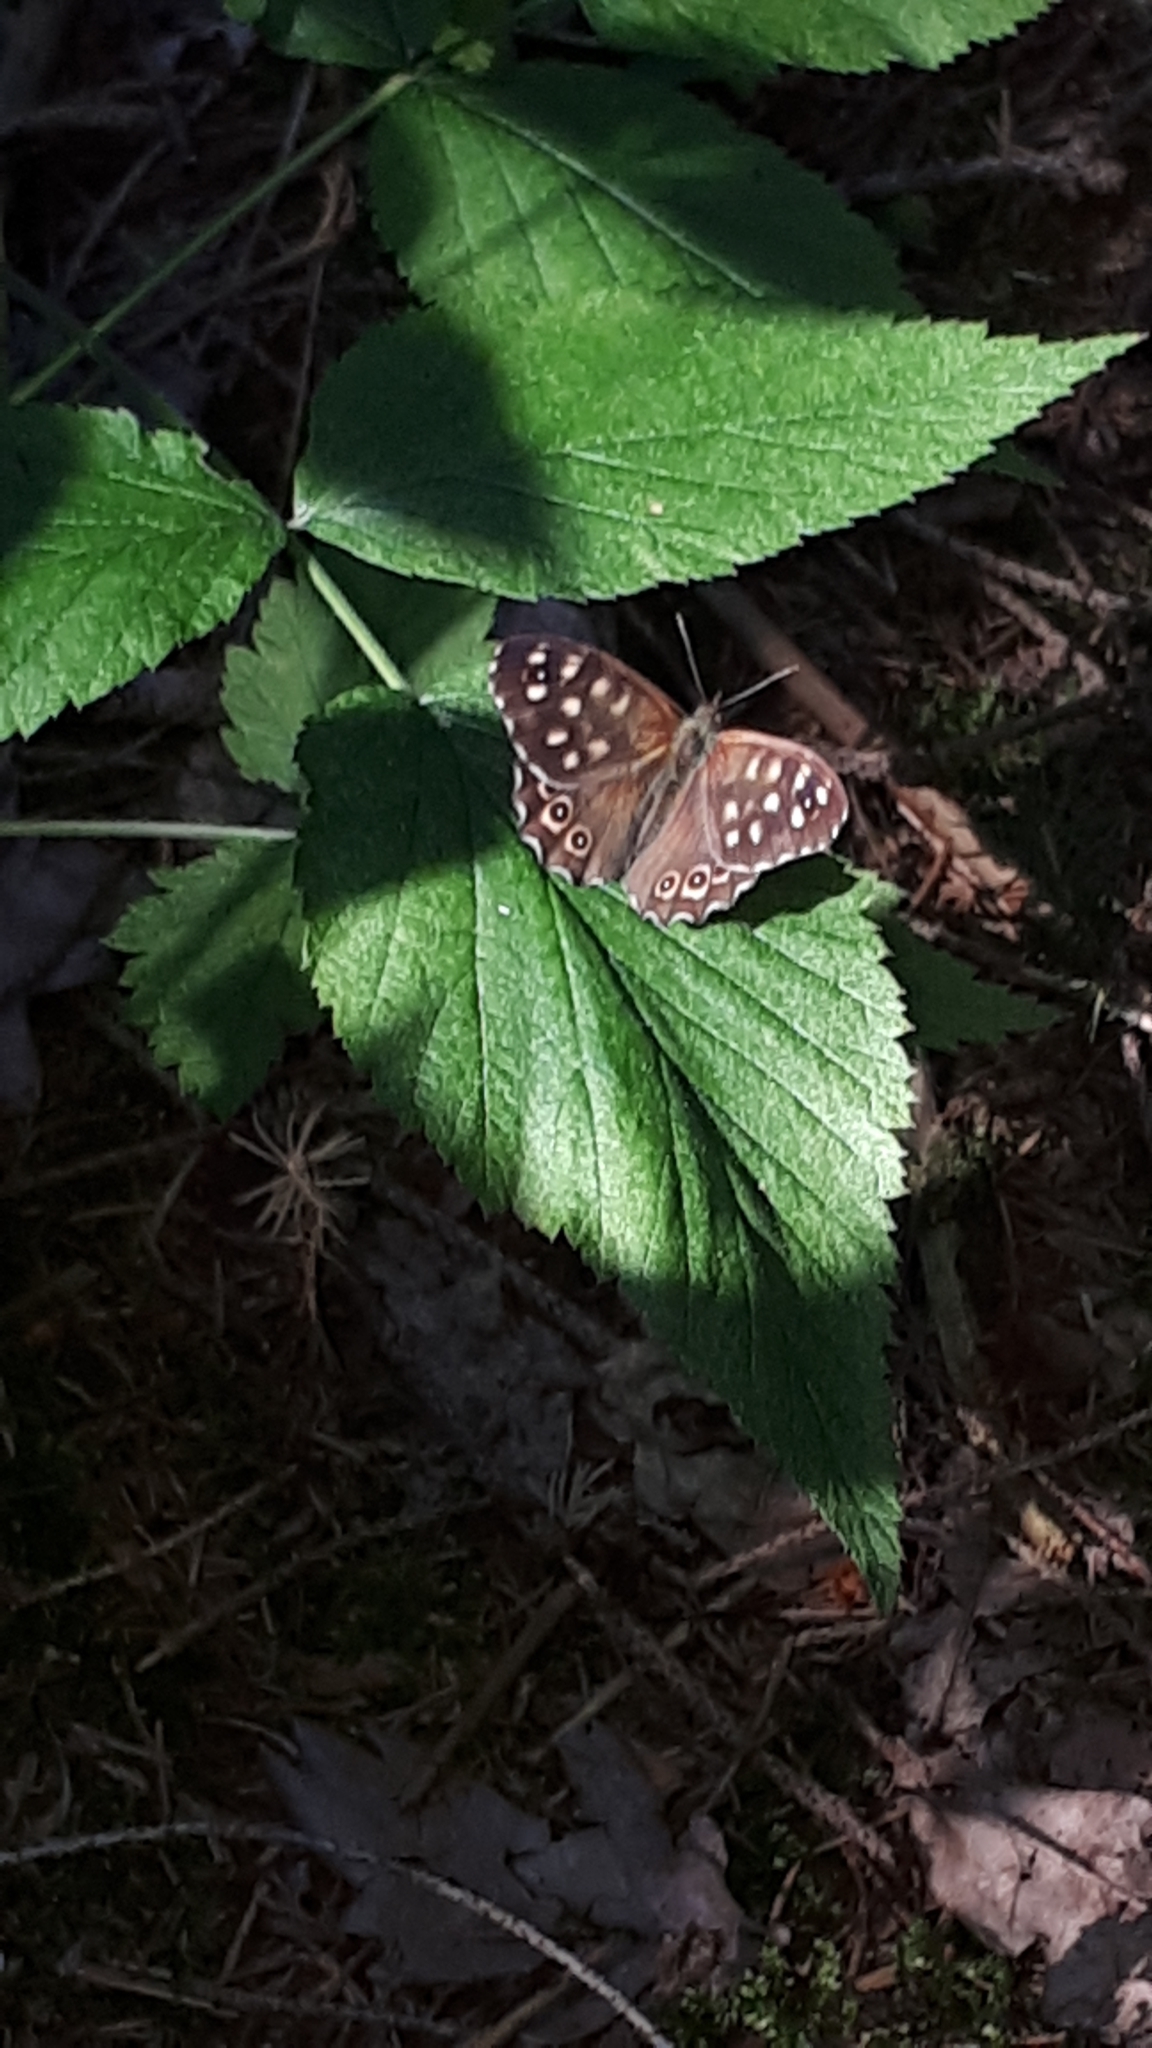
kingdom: Animalia
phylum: Arthropoda
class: Insecta
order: Lepidoptera
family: Nymphalidae
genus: Pararge
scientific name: Pararge aegeria
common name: Speckled wood
